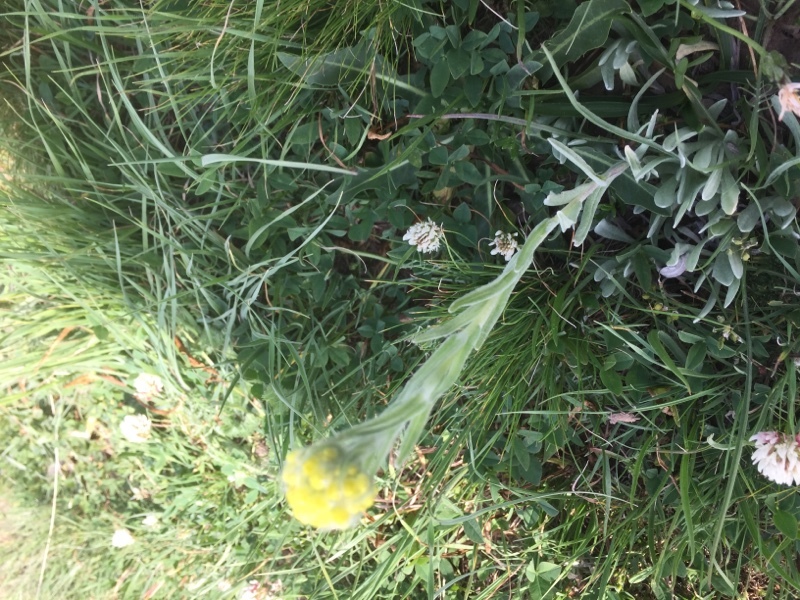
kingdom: Plantae
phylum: Tracheophyta
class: Magnoliopsida
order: Asterales
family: Asteraceae
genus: Helichrysum
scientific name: Helichrysum arenarium
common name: Strawflower
